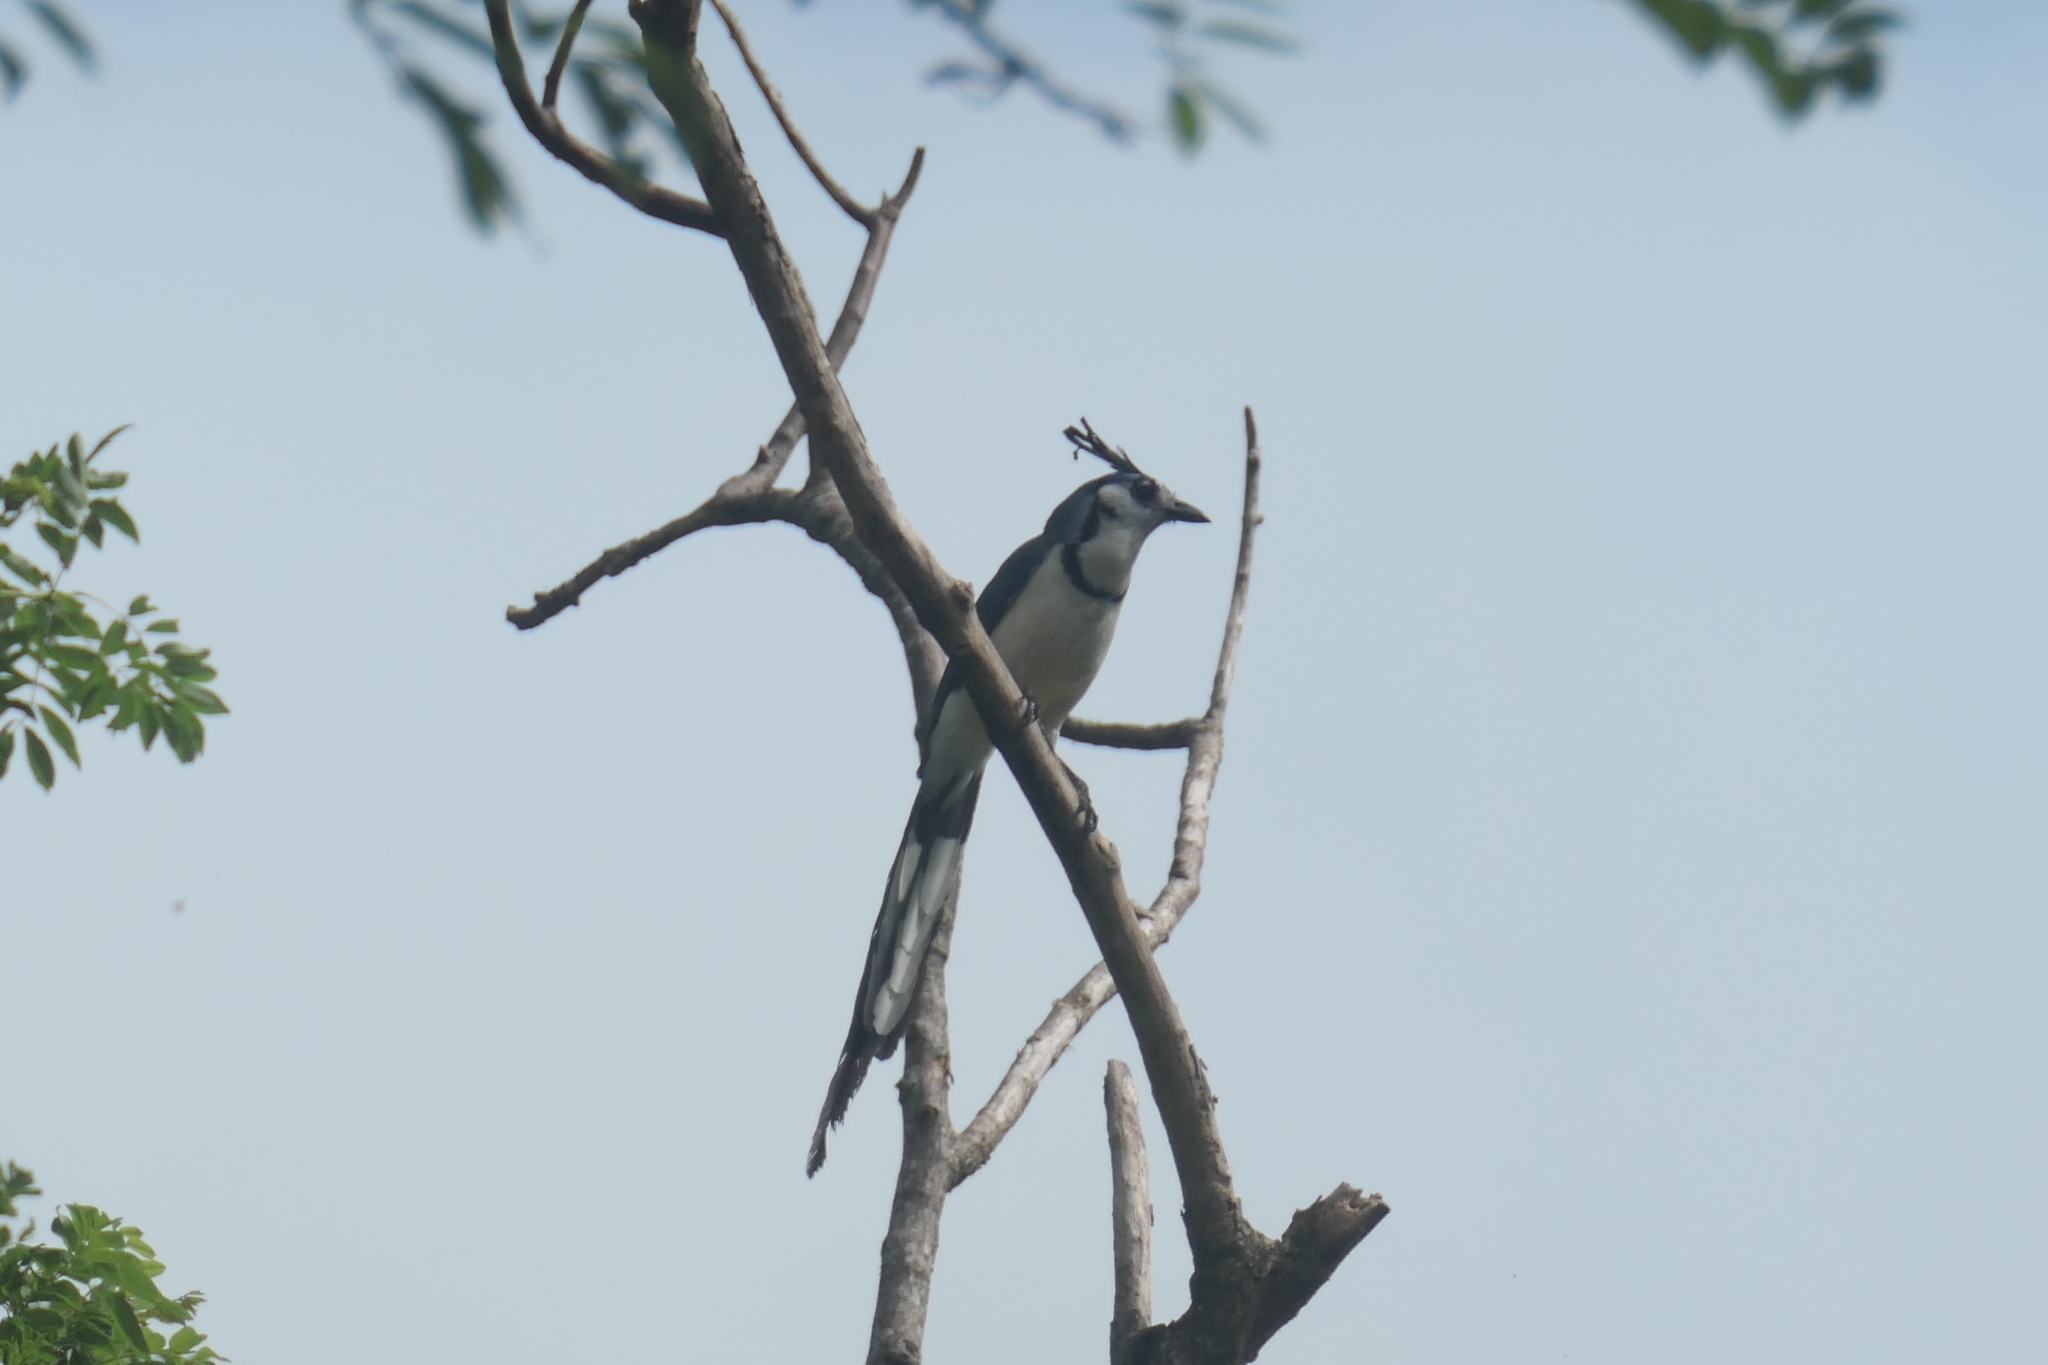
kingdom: Animalia
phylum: Chordata
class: Aves
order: Passeriformes
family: Corvidae
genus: Calocitta
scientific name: Calocitta formosa
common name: White-throated magpie-jay
